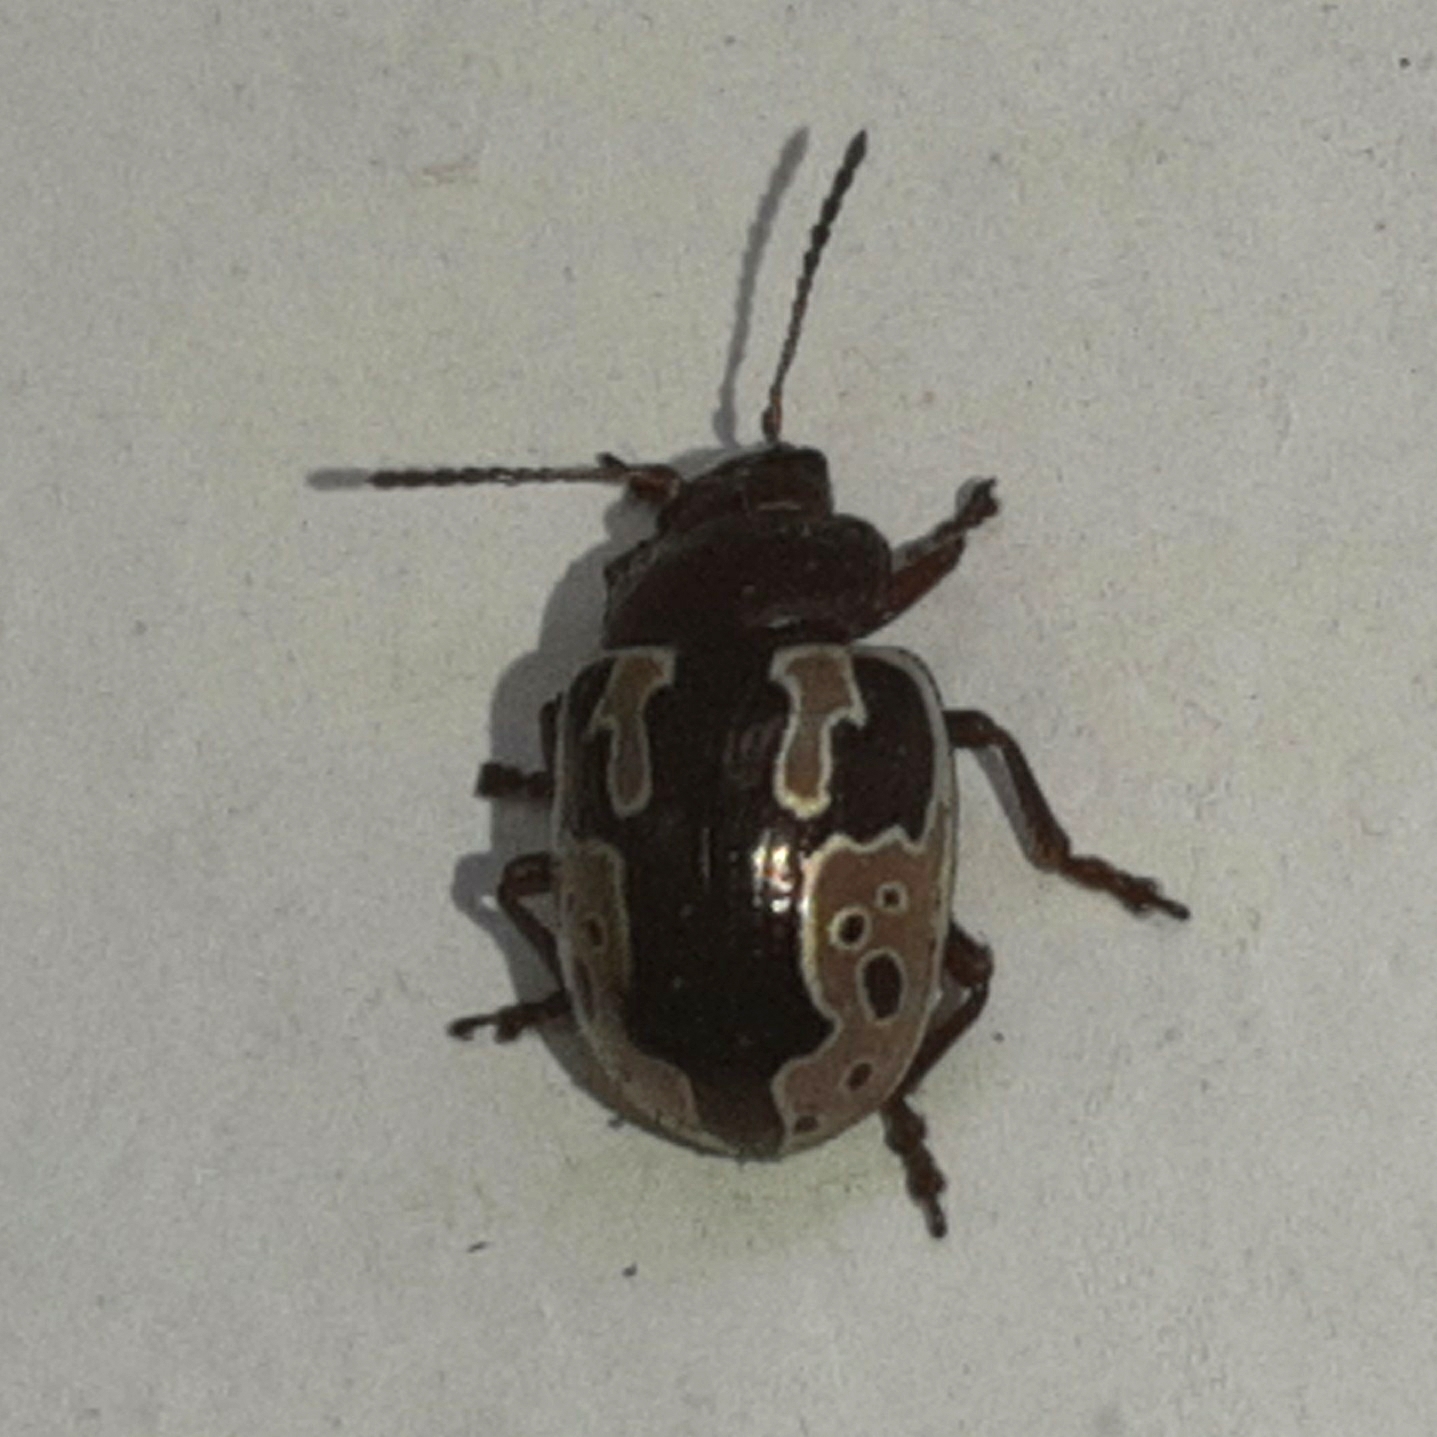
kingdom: Animalia
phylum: Arthropoda
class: Insecta
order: Coleoptera
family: Chrysomelidae
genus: Calligrapha
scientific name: Calligrapha
